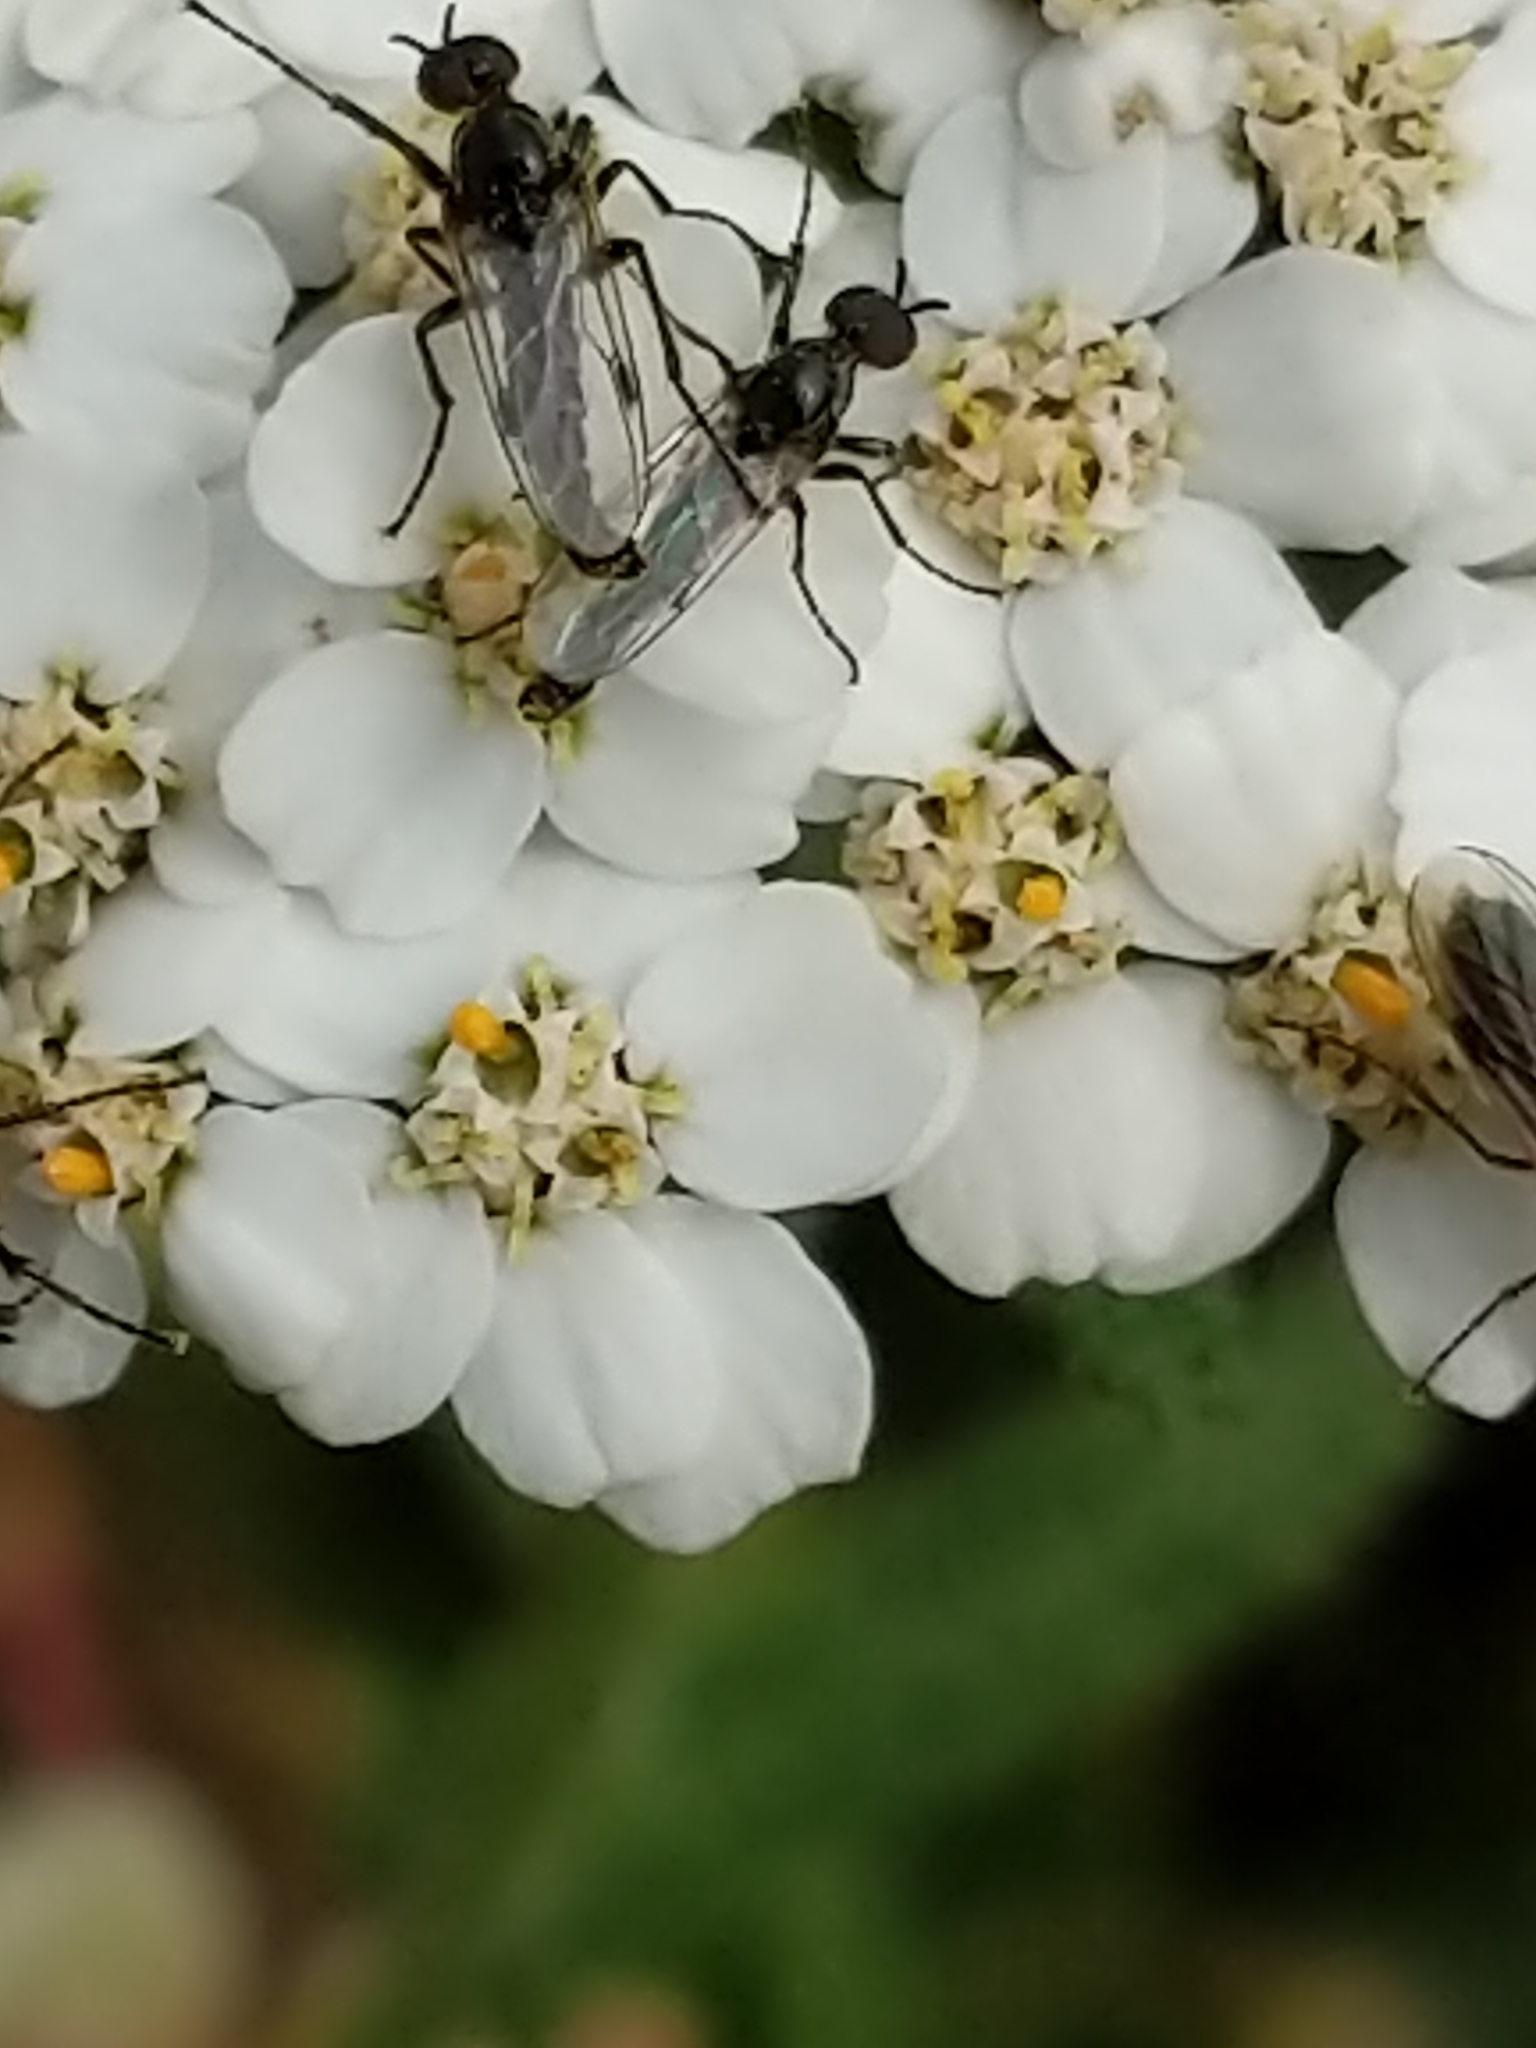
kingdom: Animalia
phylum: Arthropoda
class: Insecta
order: Diptera
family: Bibionidae
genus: Dilophus
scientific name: Dilophus
